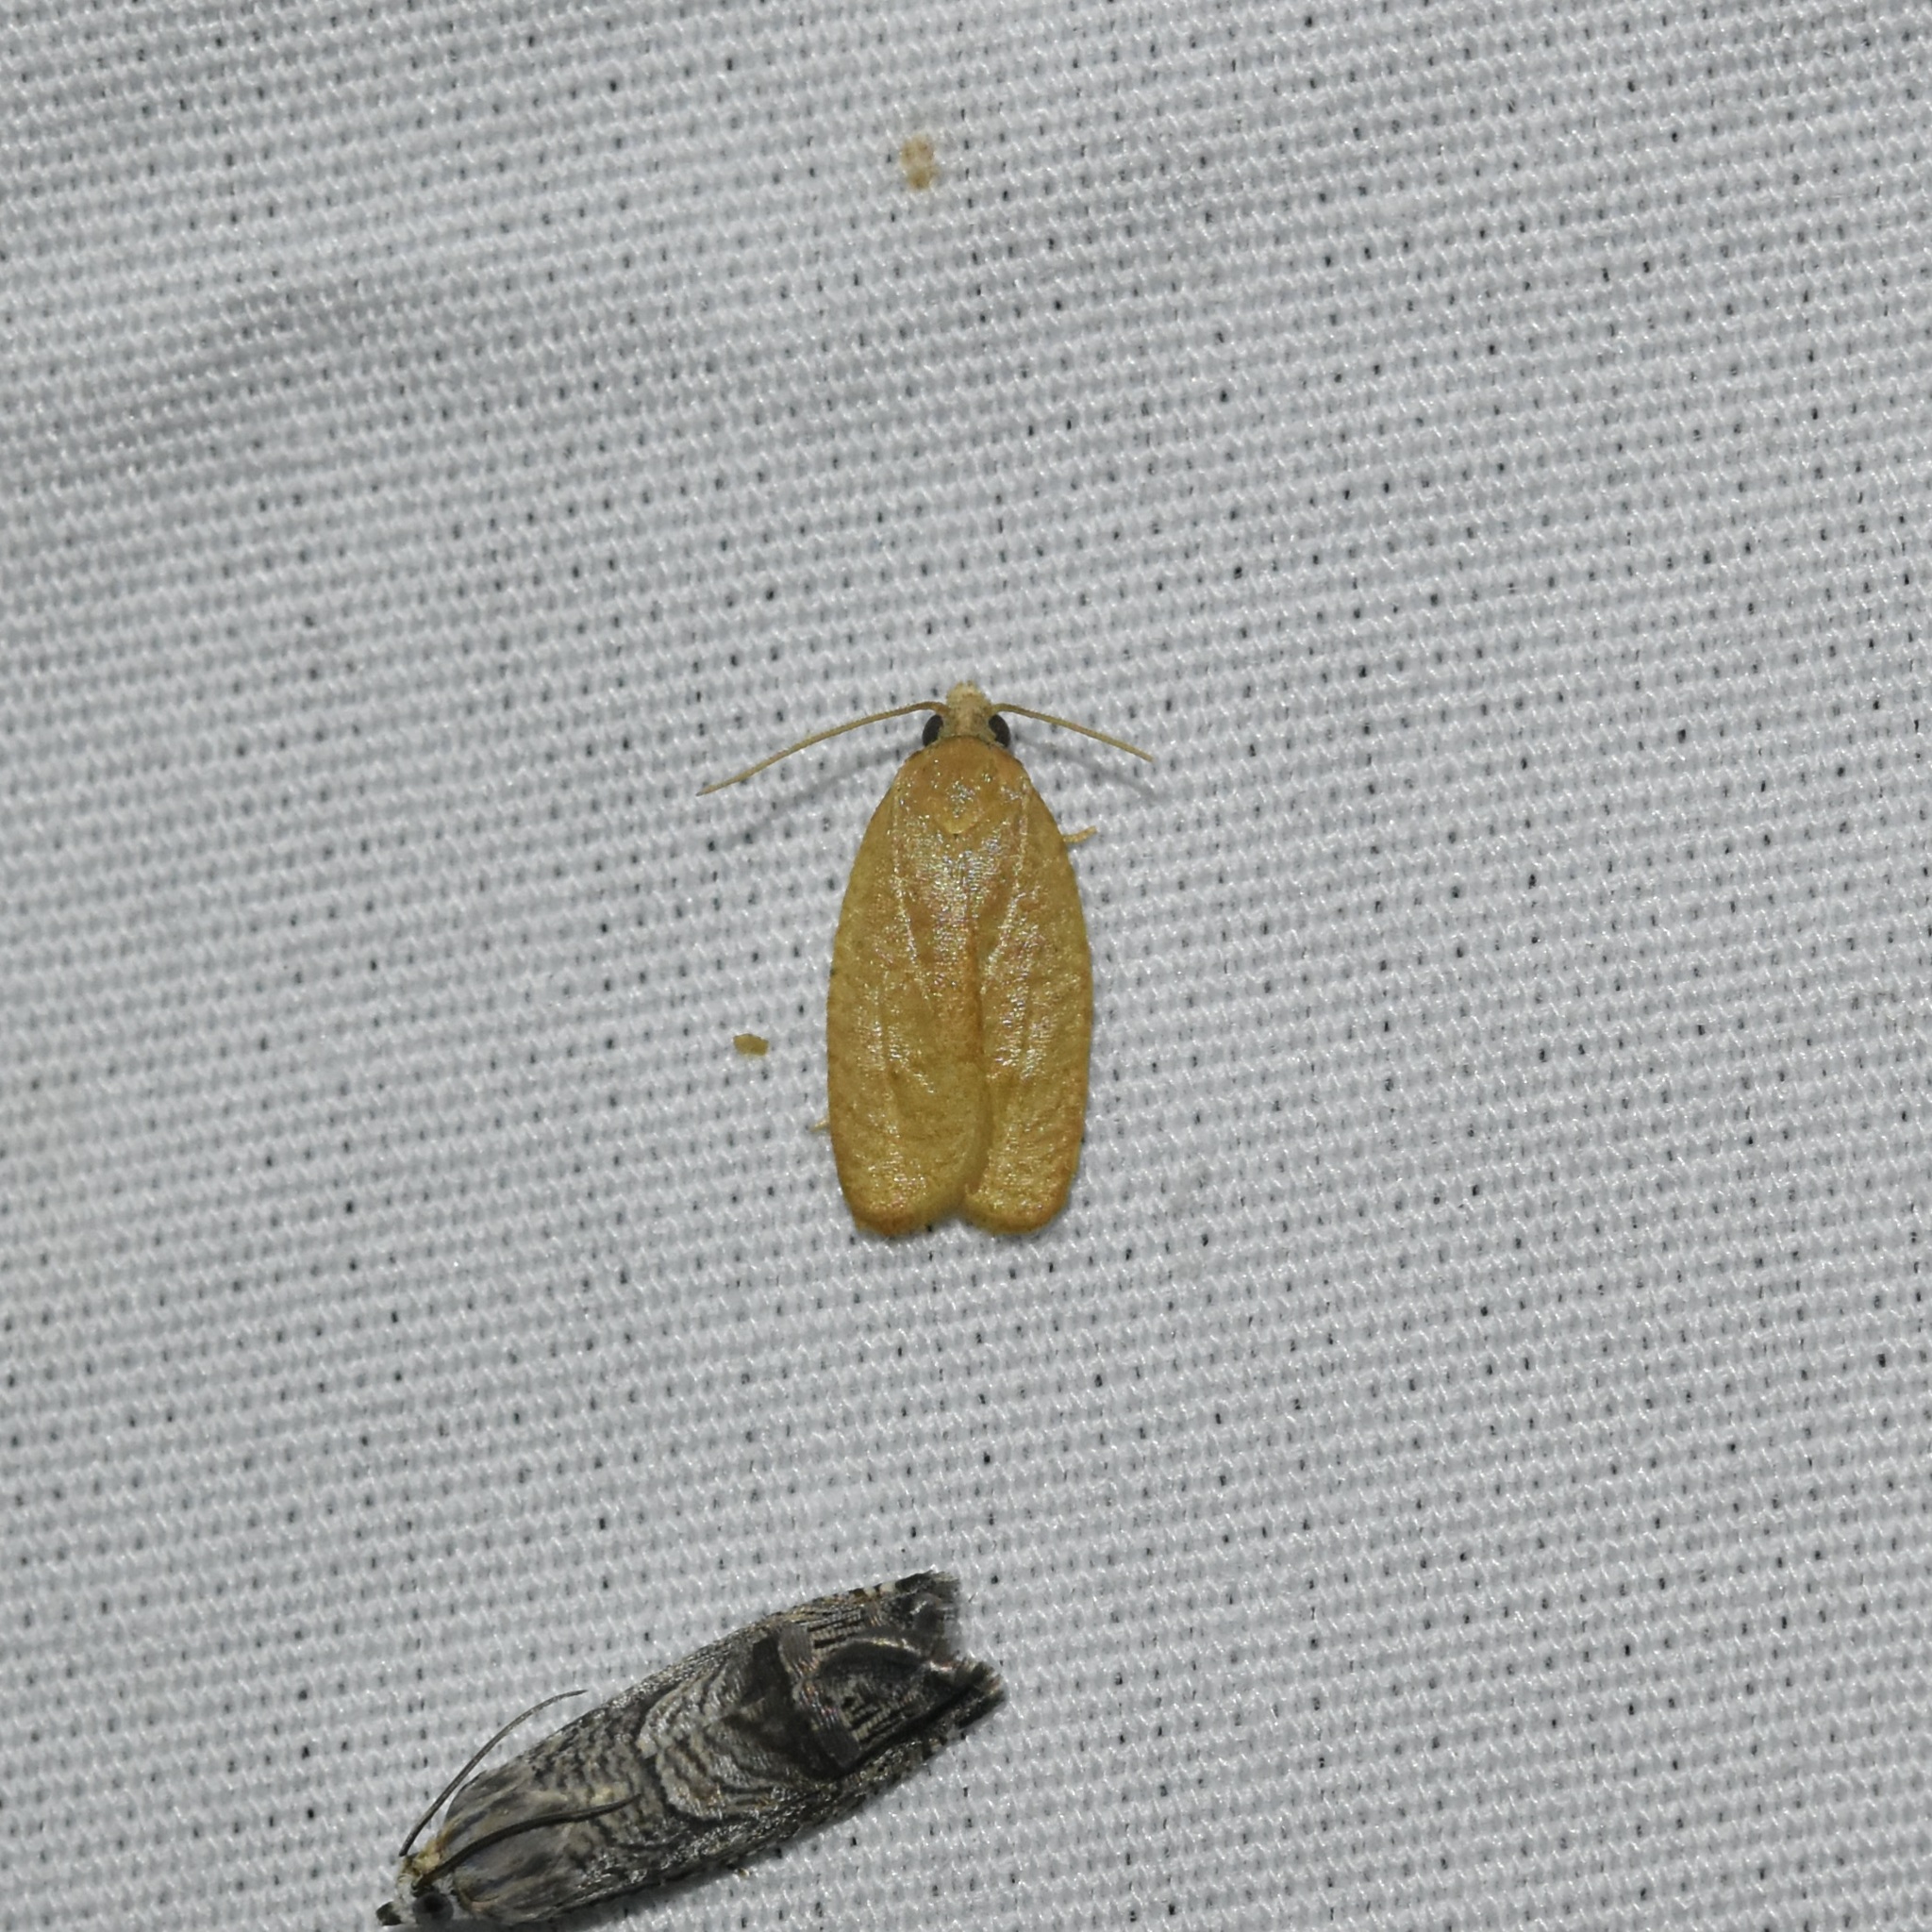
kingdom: Animalia
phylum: Arthropoda
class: Insecta
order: Lepidoptera
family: Tortricidae
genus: Sparganothis
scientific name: Sparganothis distincta
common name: Distinct sparganothis moth
